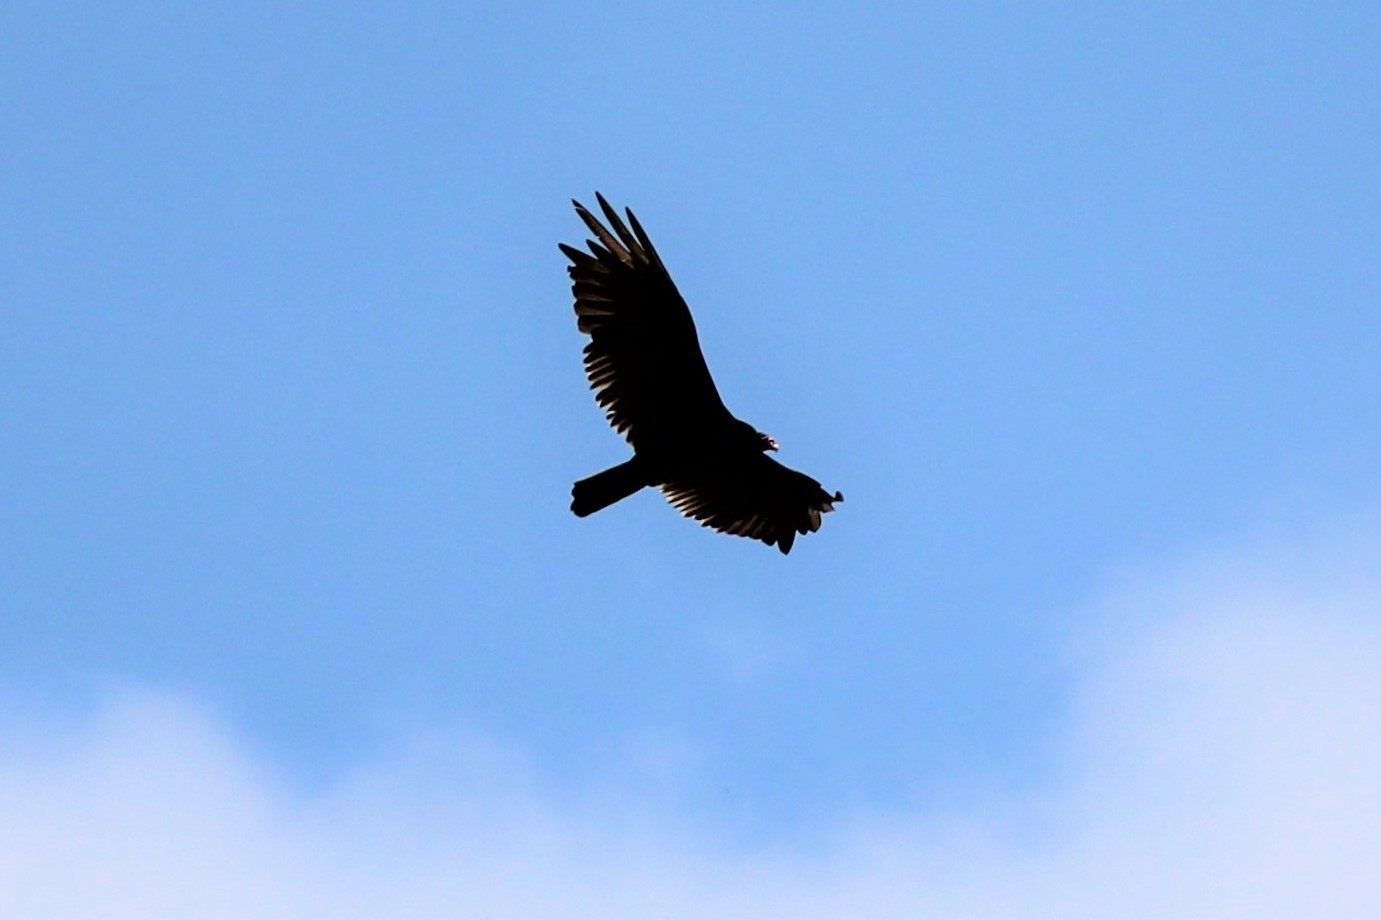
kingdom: Animalia
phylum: Chordata
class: Aves
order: Accipitriformes
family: Cathartidae
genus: Cathartes
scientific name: Cathartes aura
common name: Turkey vulture
